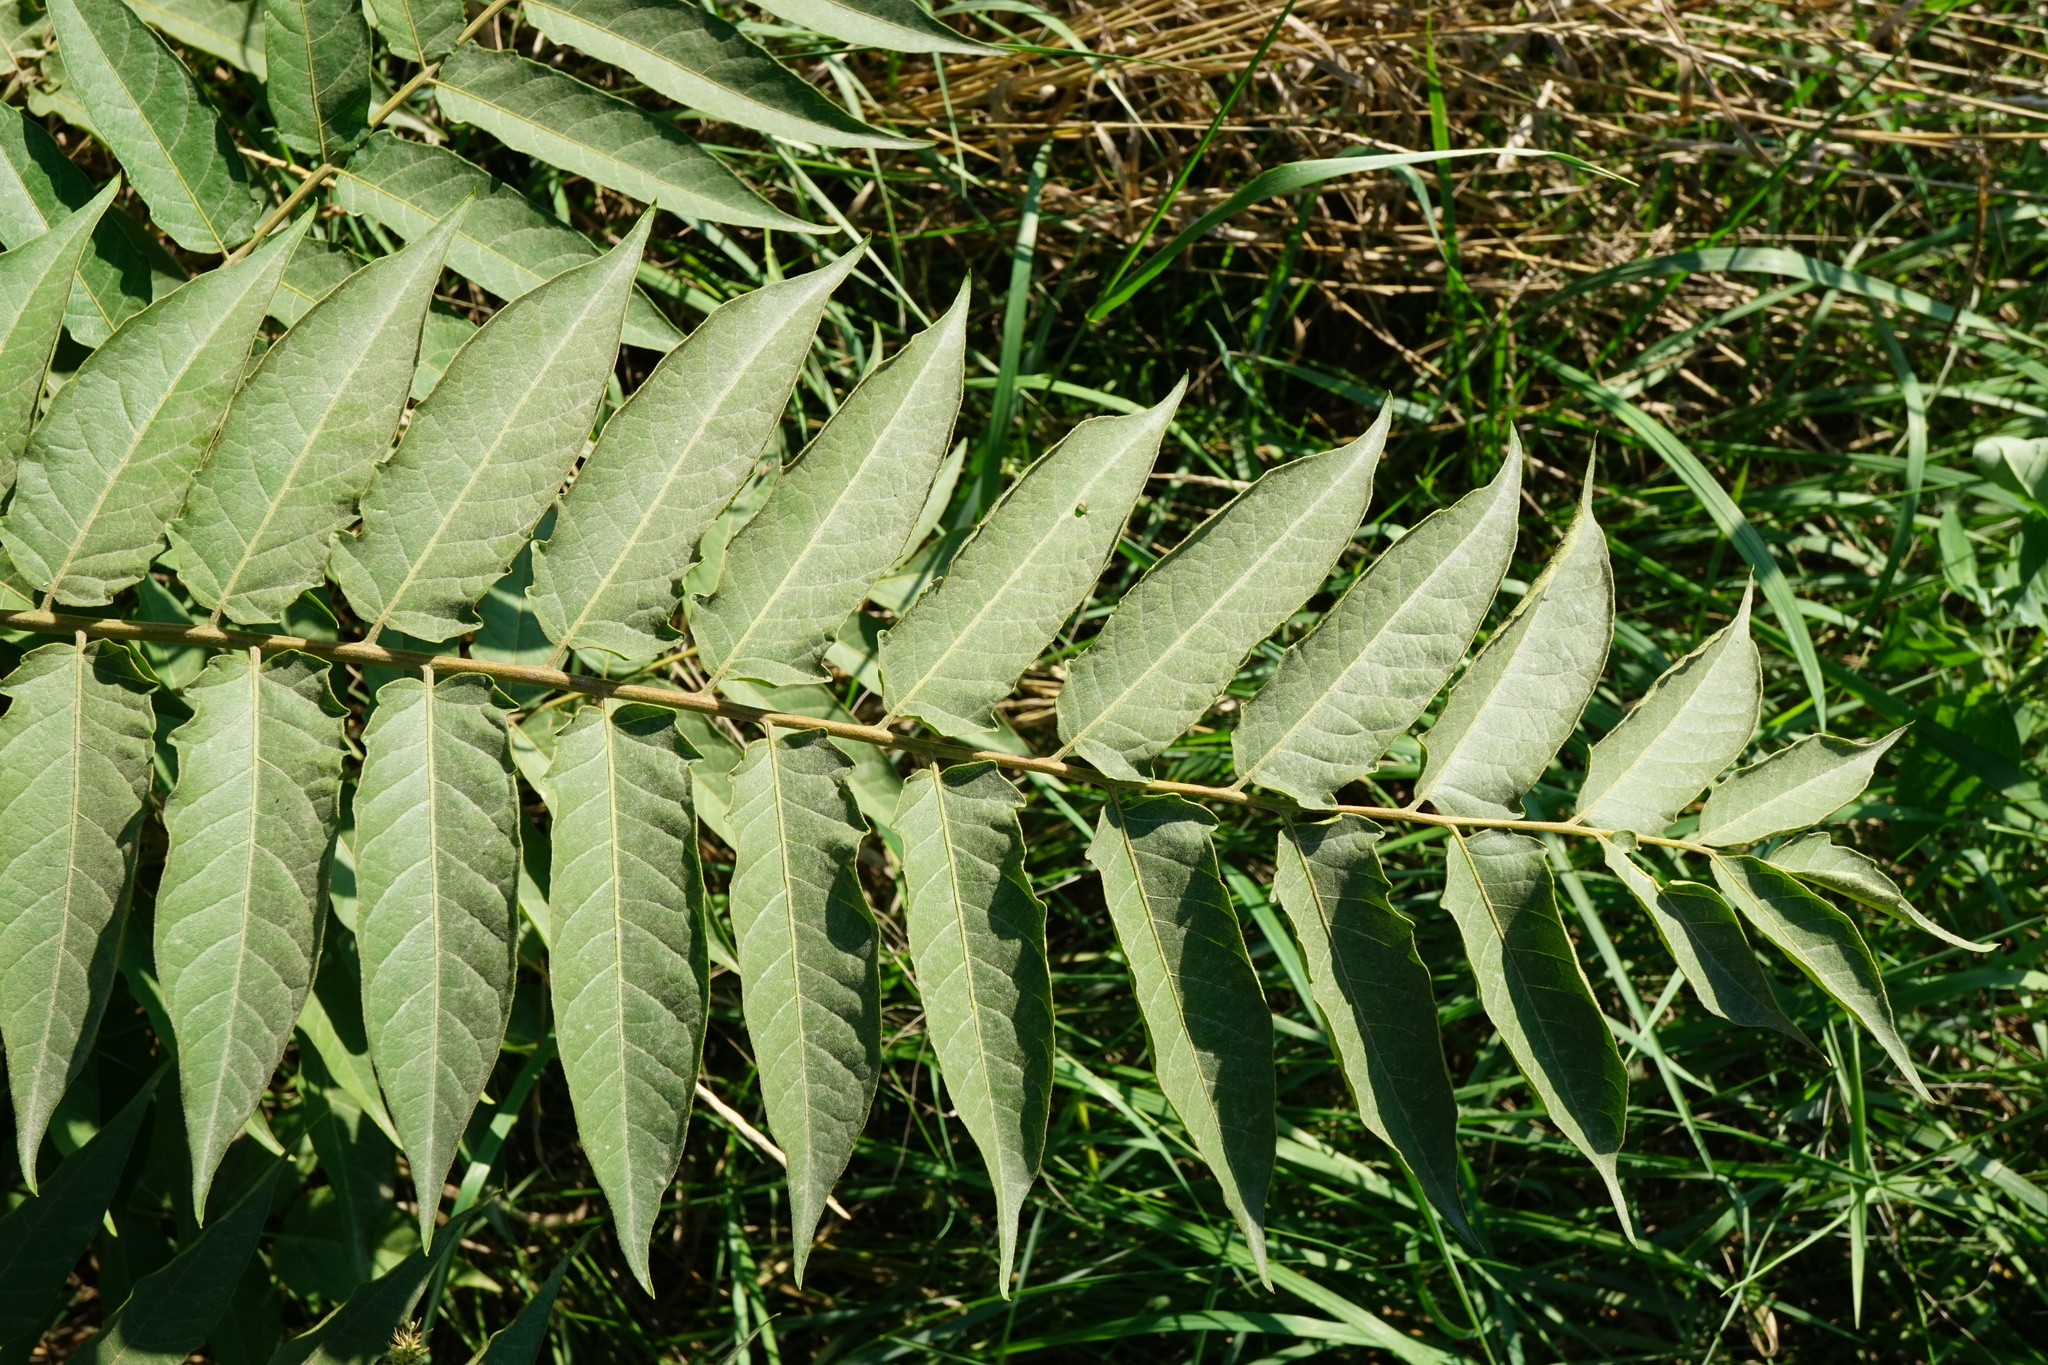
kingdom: Plantae
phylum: Tracheophyta
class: Magnoliopsida
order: Sapindales
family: Simaroubaceae
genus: Ailanthus
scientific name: Ailanthus altissima
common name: Tree-of-heaven
